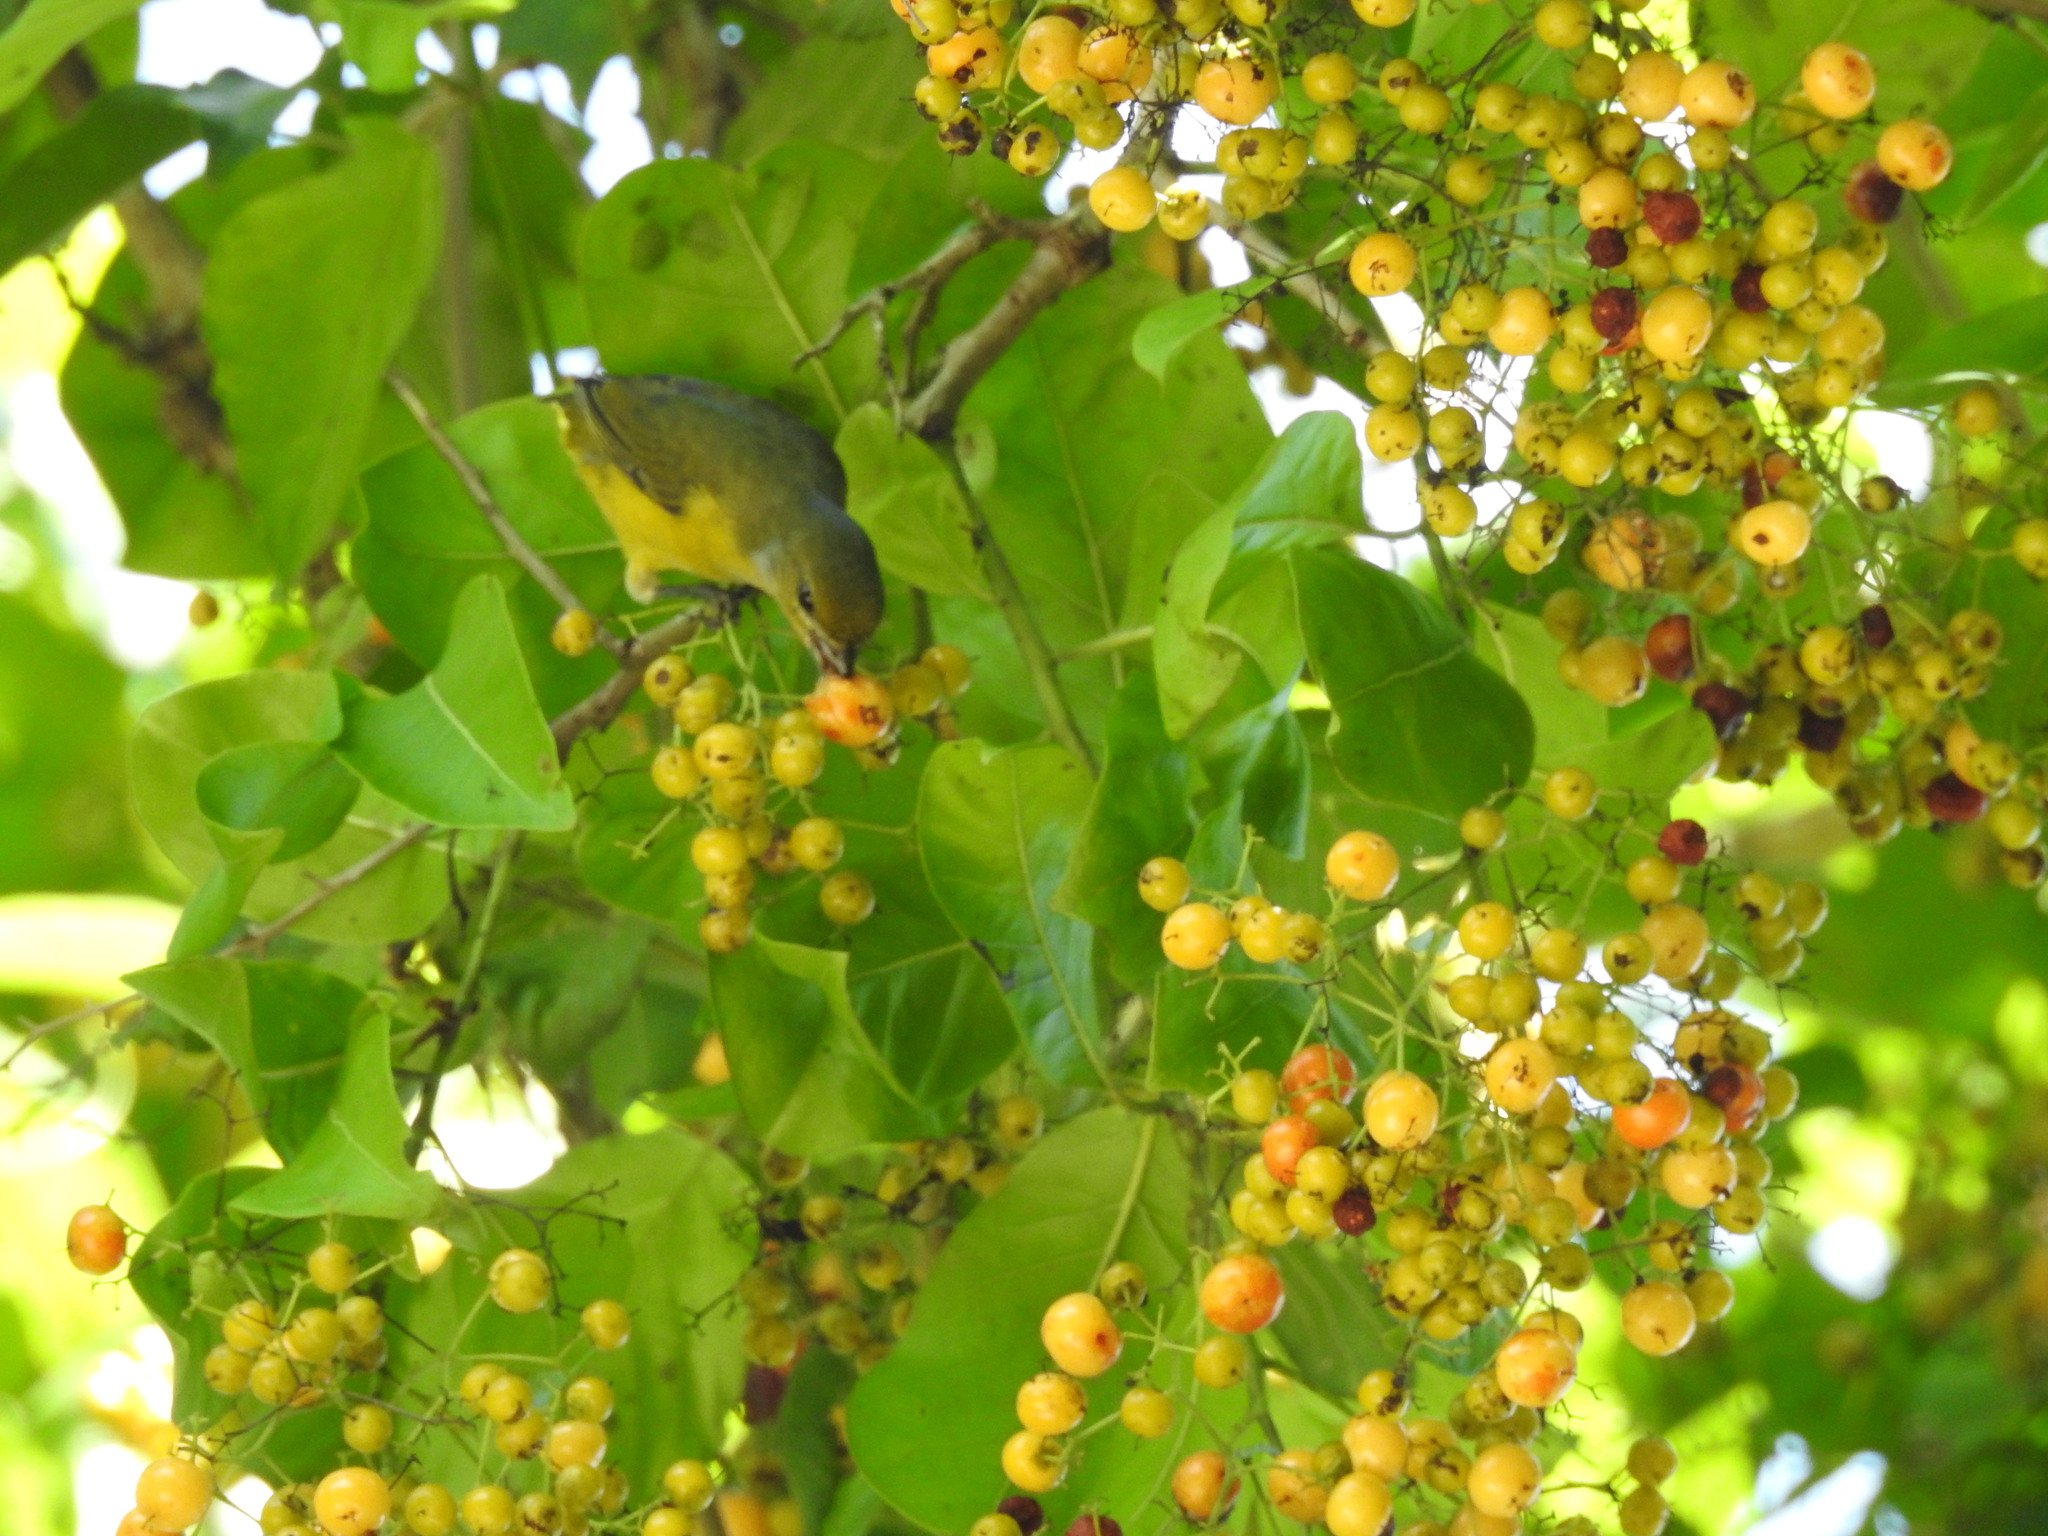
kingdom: Animalia
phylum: Chordata
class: Aves
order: Passeriformes
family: Fringillidae
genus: Euphonia
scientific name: Euphonia hirundinacea
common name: Yellow-throated euphonia
